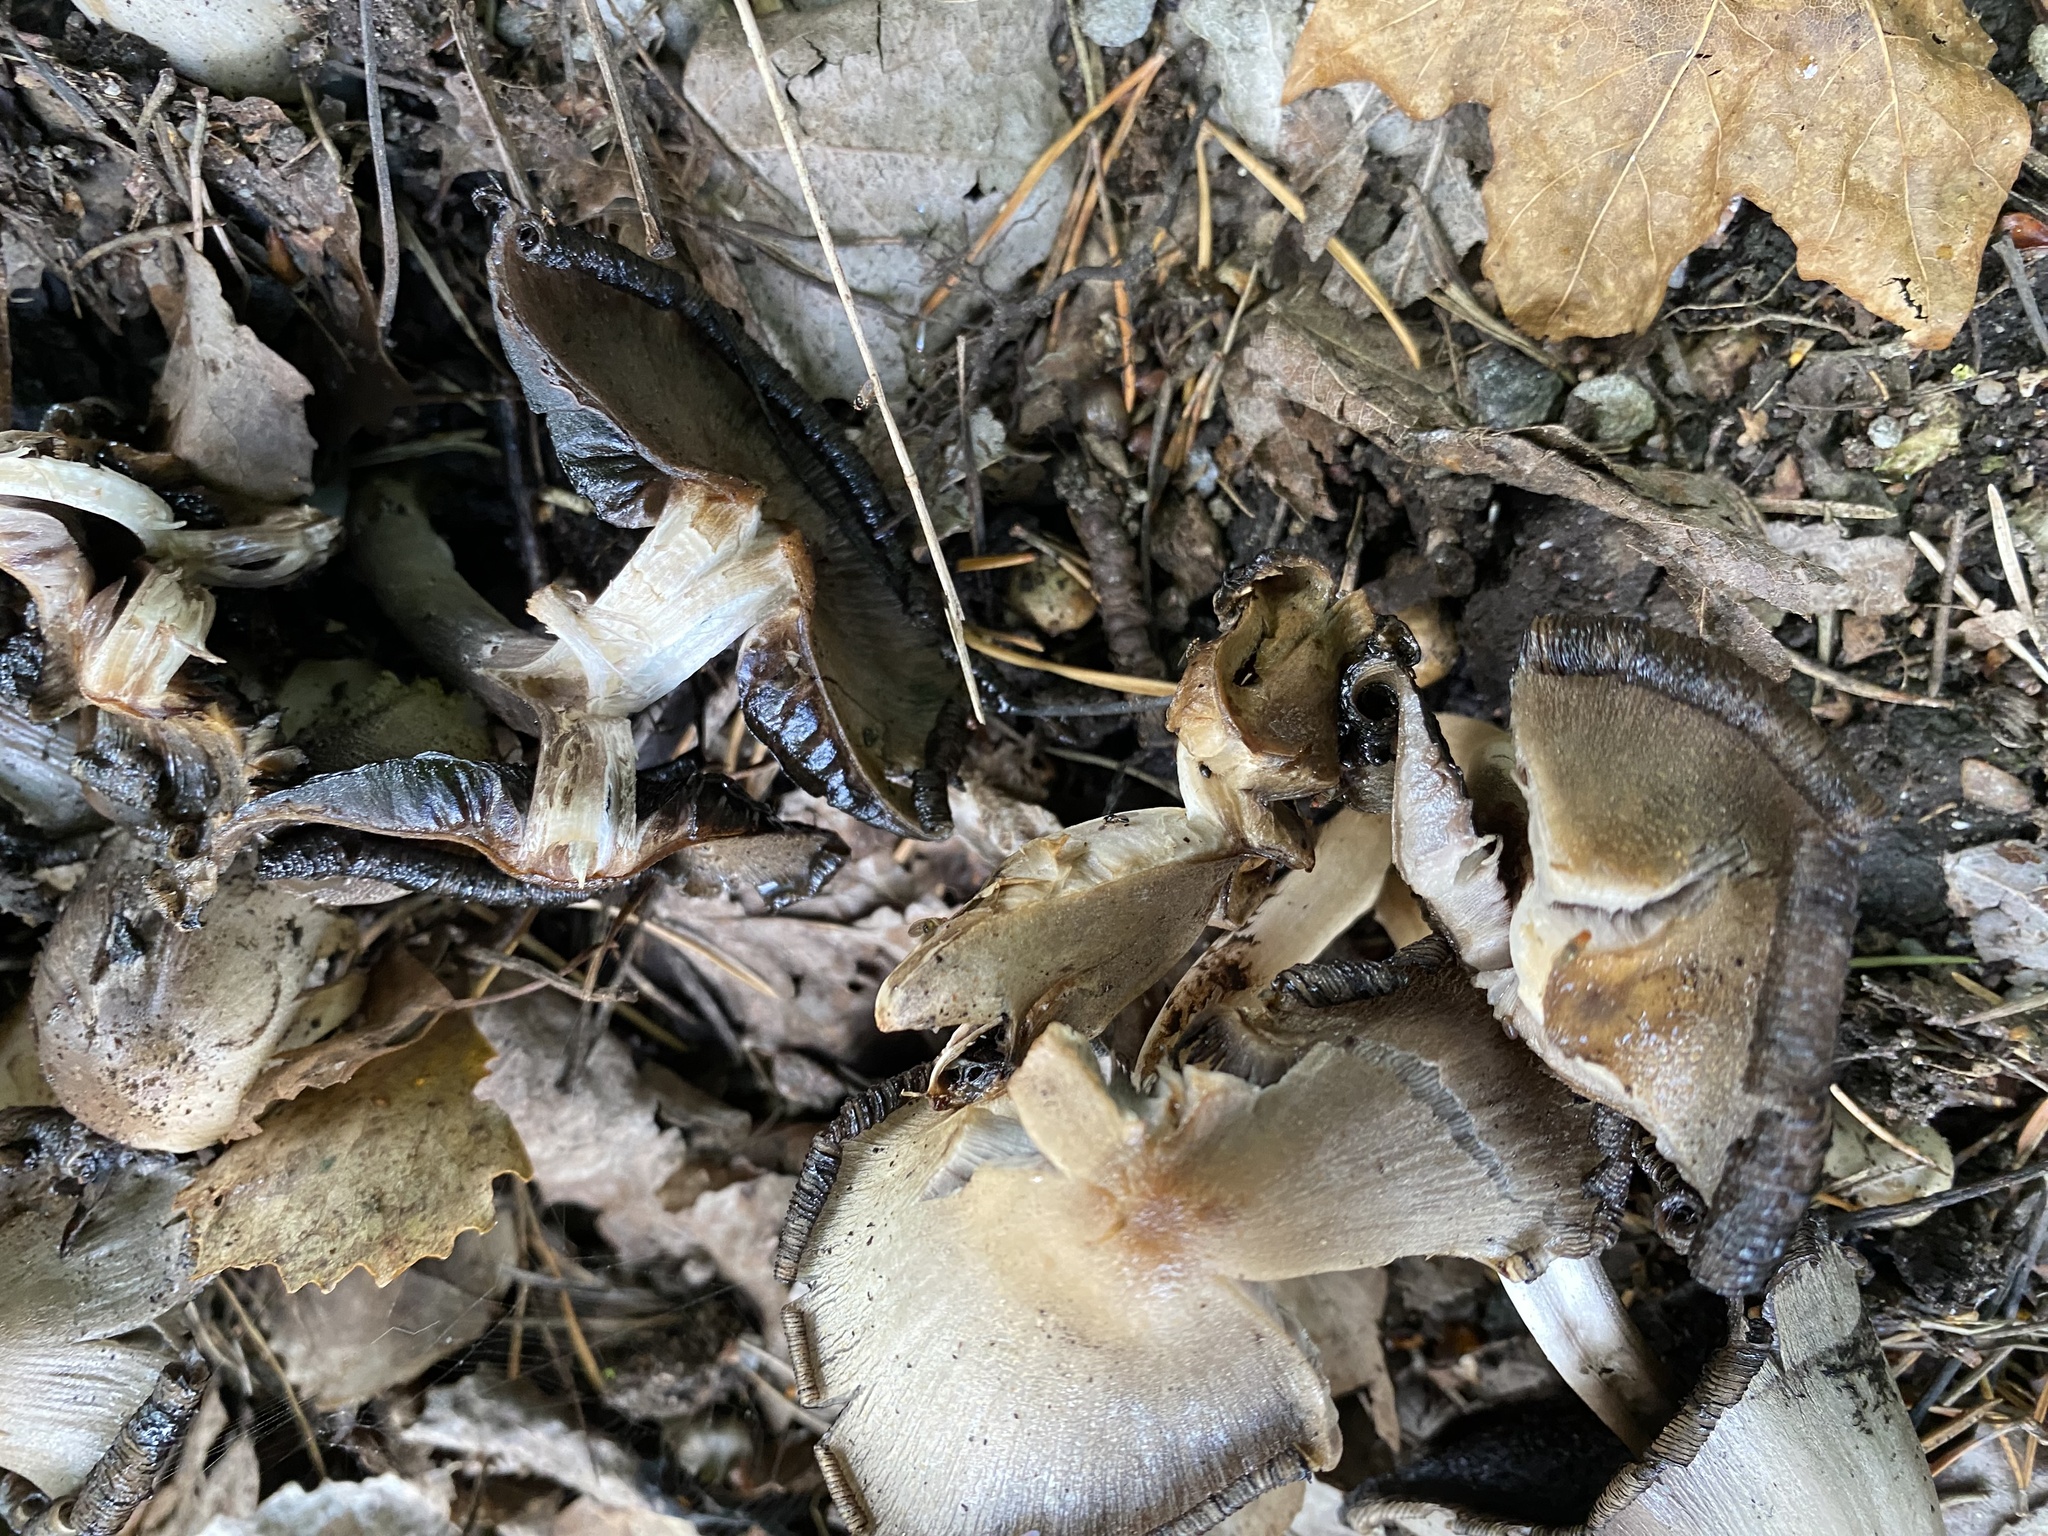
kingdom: Fungi
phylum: Basidiomycota
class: Agaricomycetes
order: Agaricales
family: Psathyrellaceae
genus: Coprinopsis
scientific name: Coprinopsis atramentaria
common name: Common ink-cap
